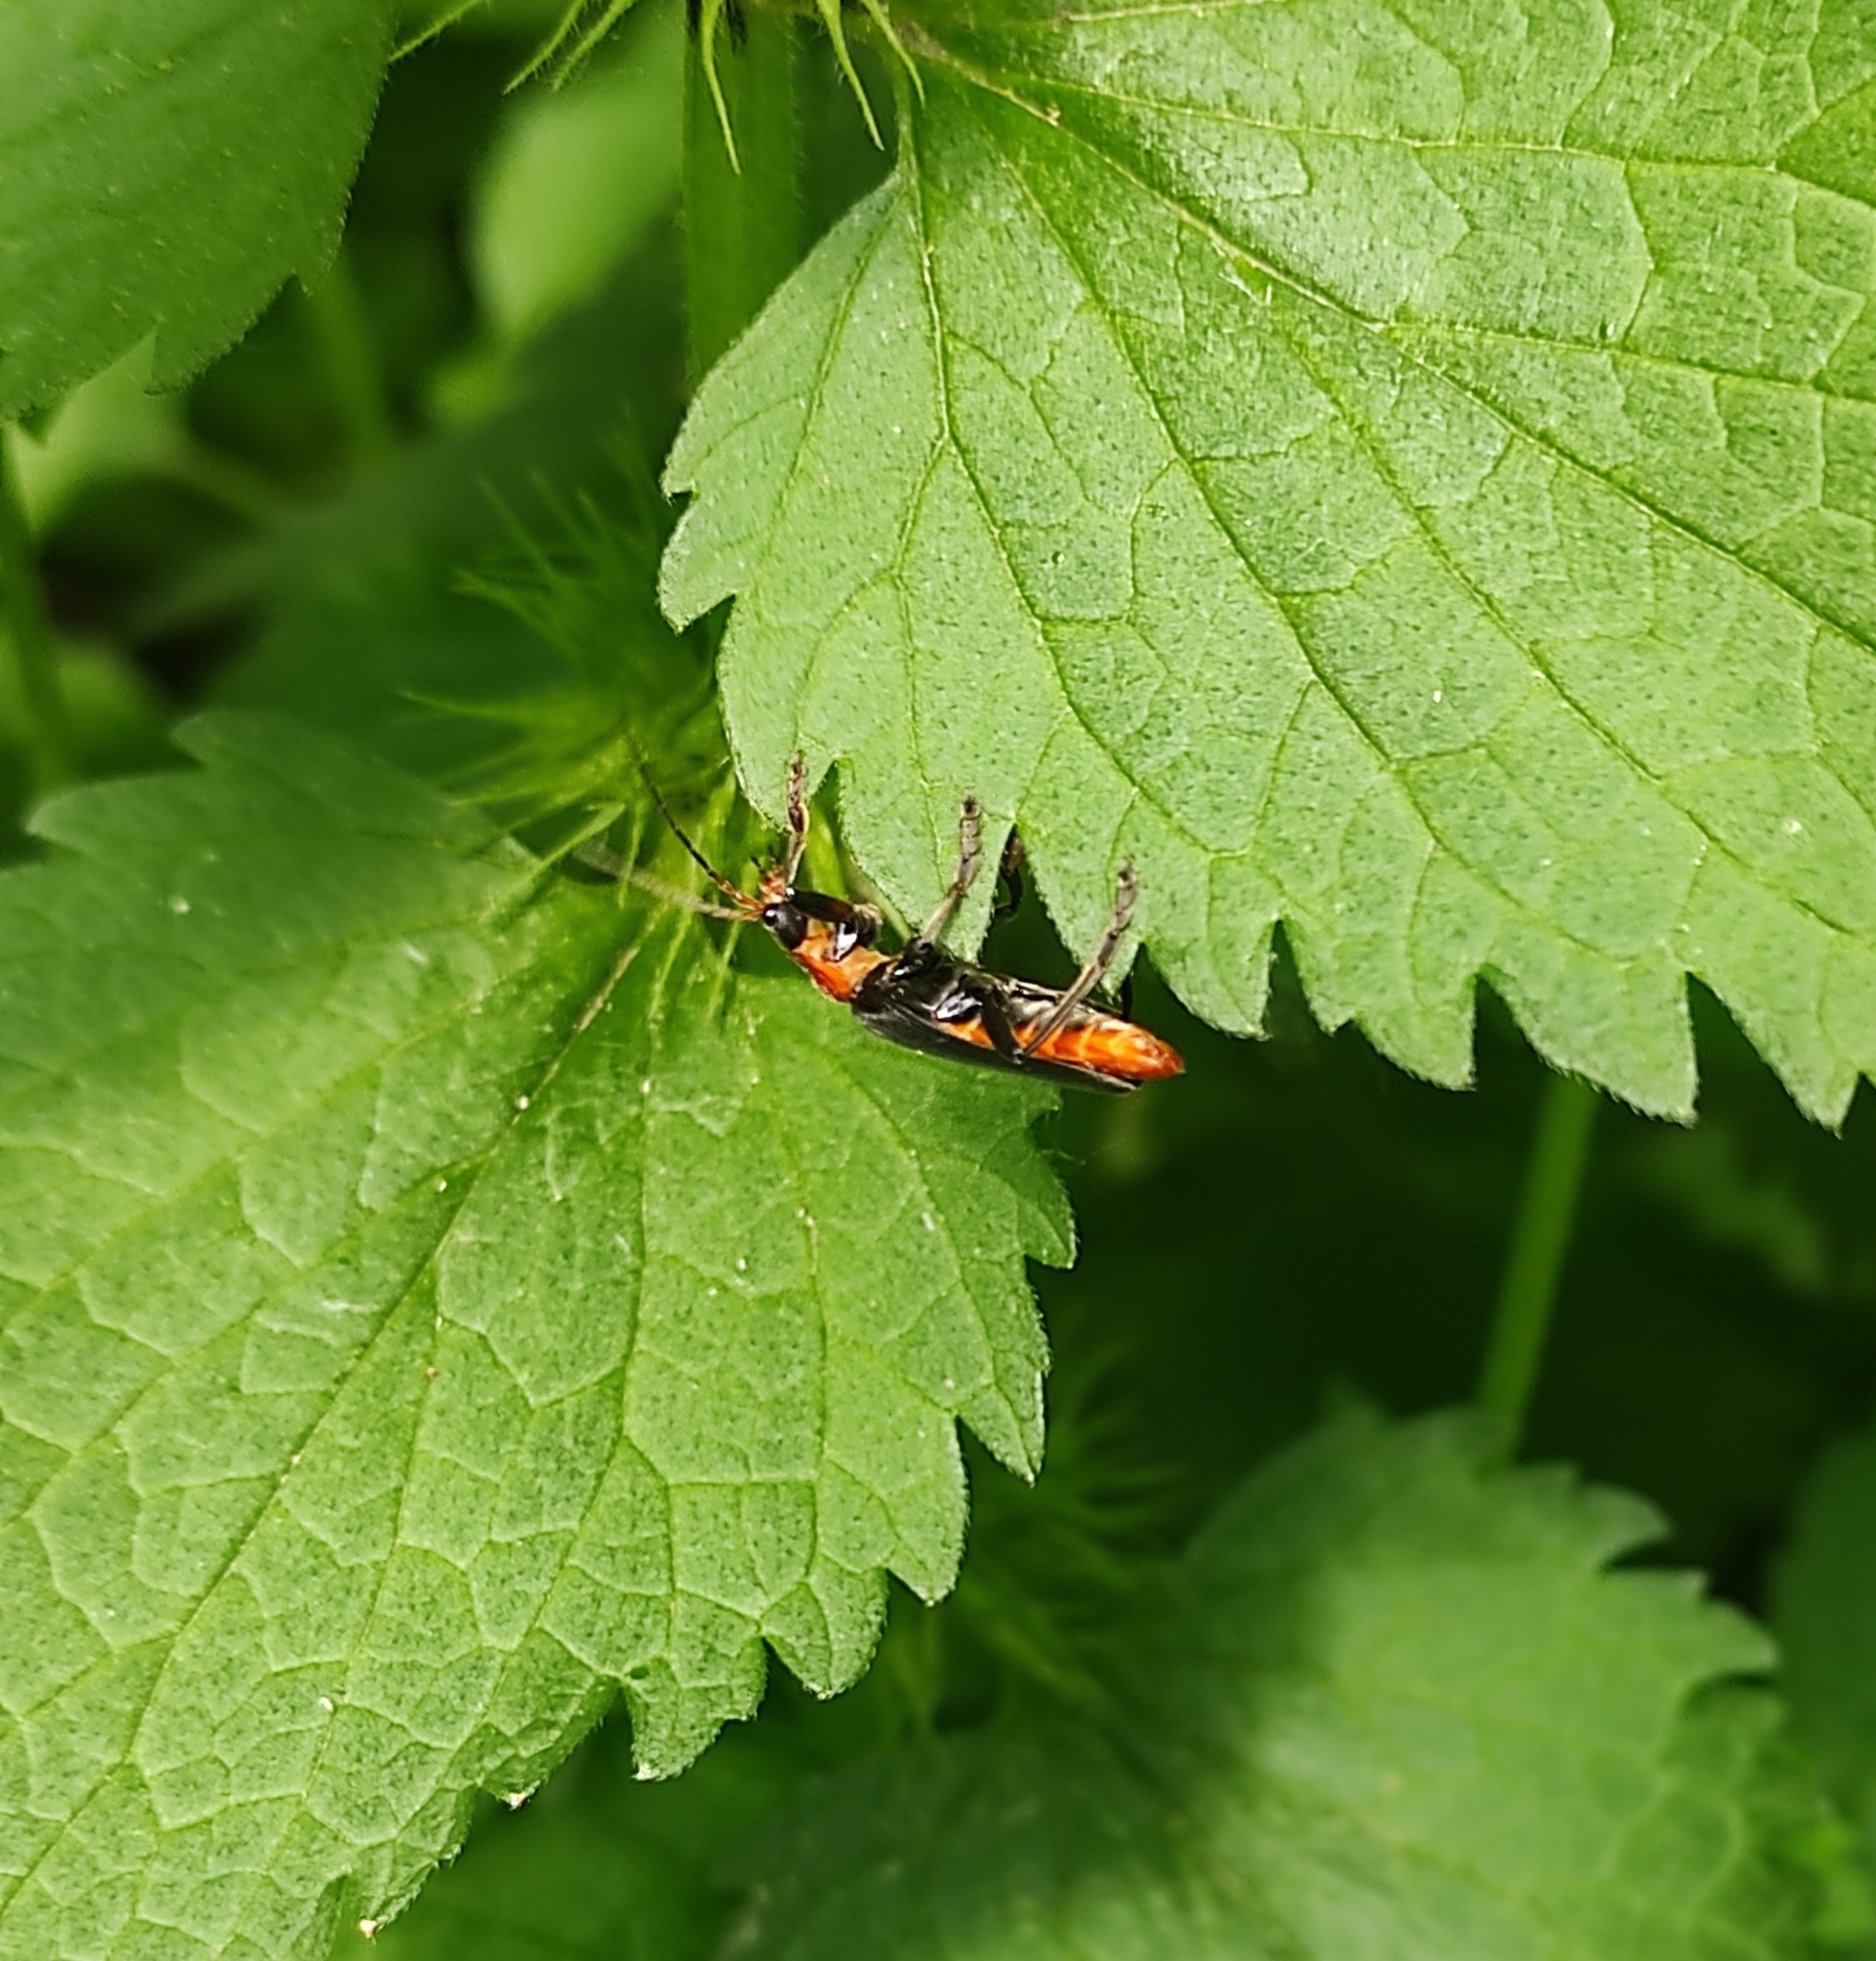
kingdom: Animalia
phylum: Arthropoda
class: Insecta
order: Coleoptera
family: Cantharidae
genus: Cantharis
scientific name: Cantharis fusca
